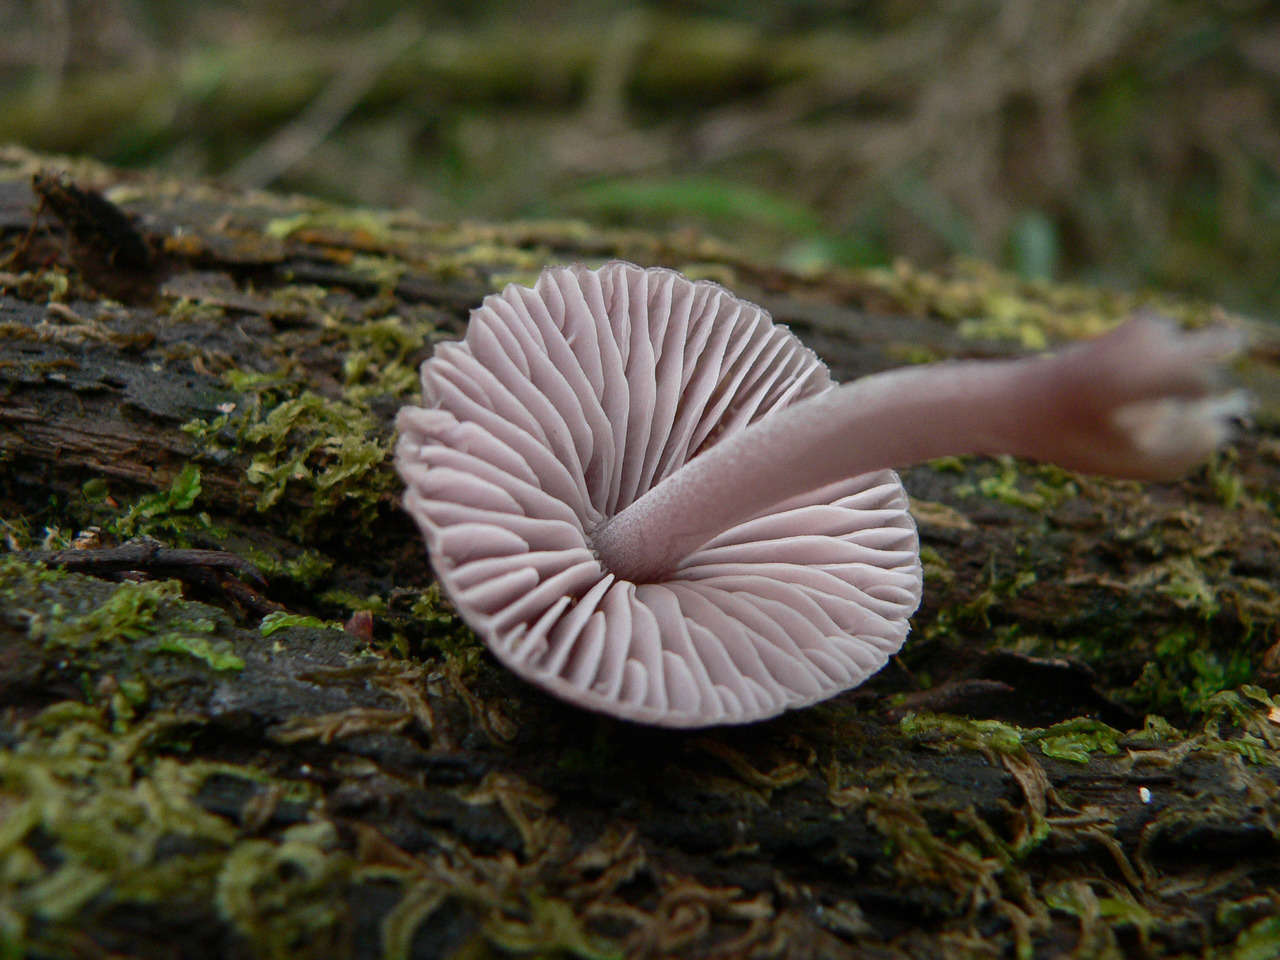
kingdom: Fungi
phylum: Basidiomycota
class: Agaricomycetes
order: Agaricales
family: Mycenaceae
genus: Mycena
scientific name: Mycena clarkeana
